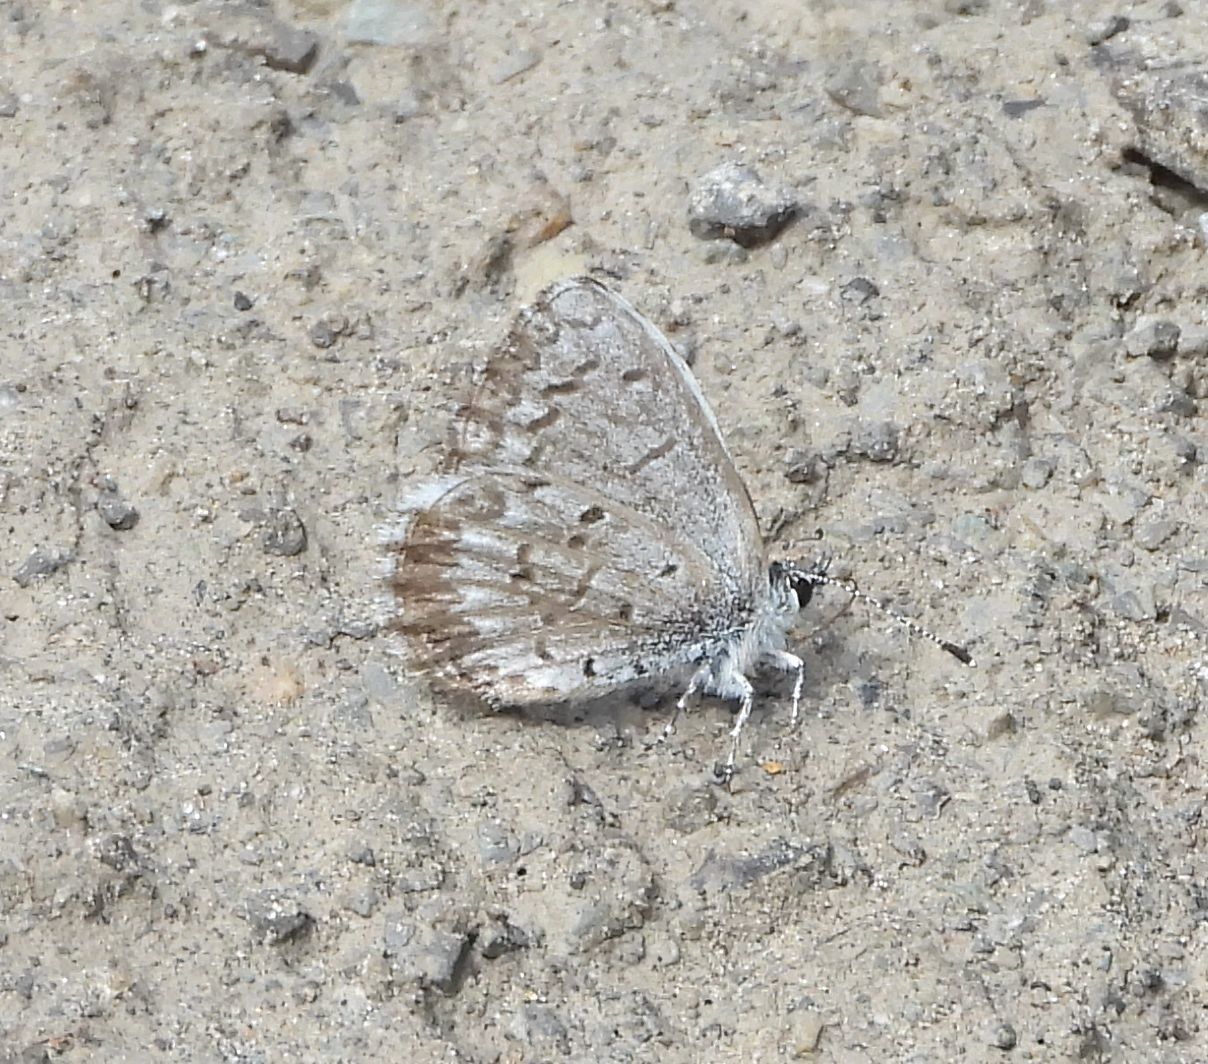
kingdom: Animalia
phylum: Arthropoda
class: Insecta
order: Lepidoptera
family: Lycaenidae
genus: Celastrina
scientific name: Celastrina lucia
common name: Lucia azure
